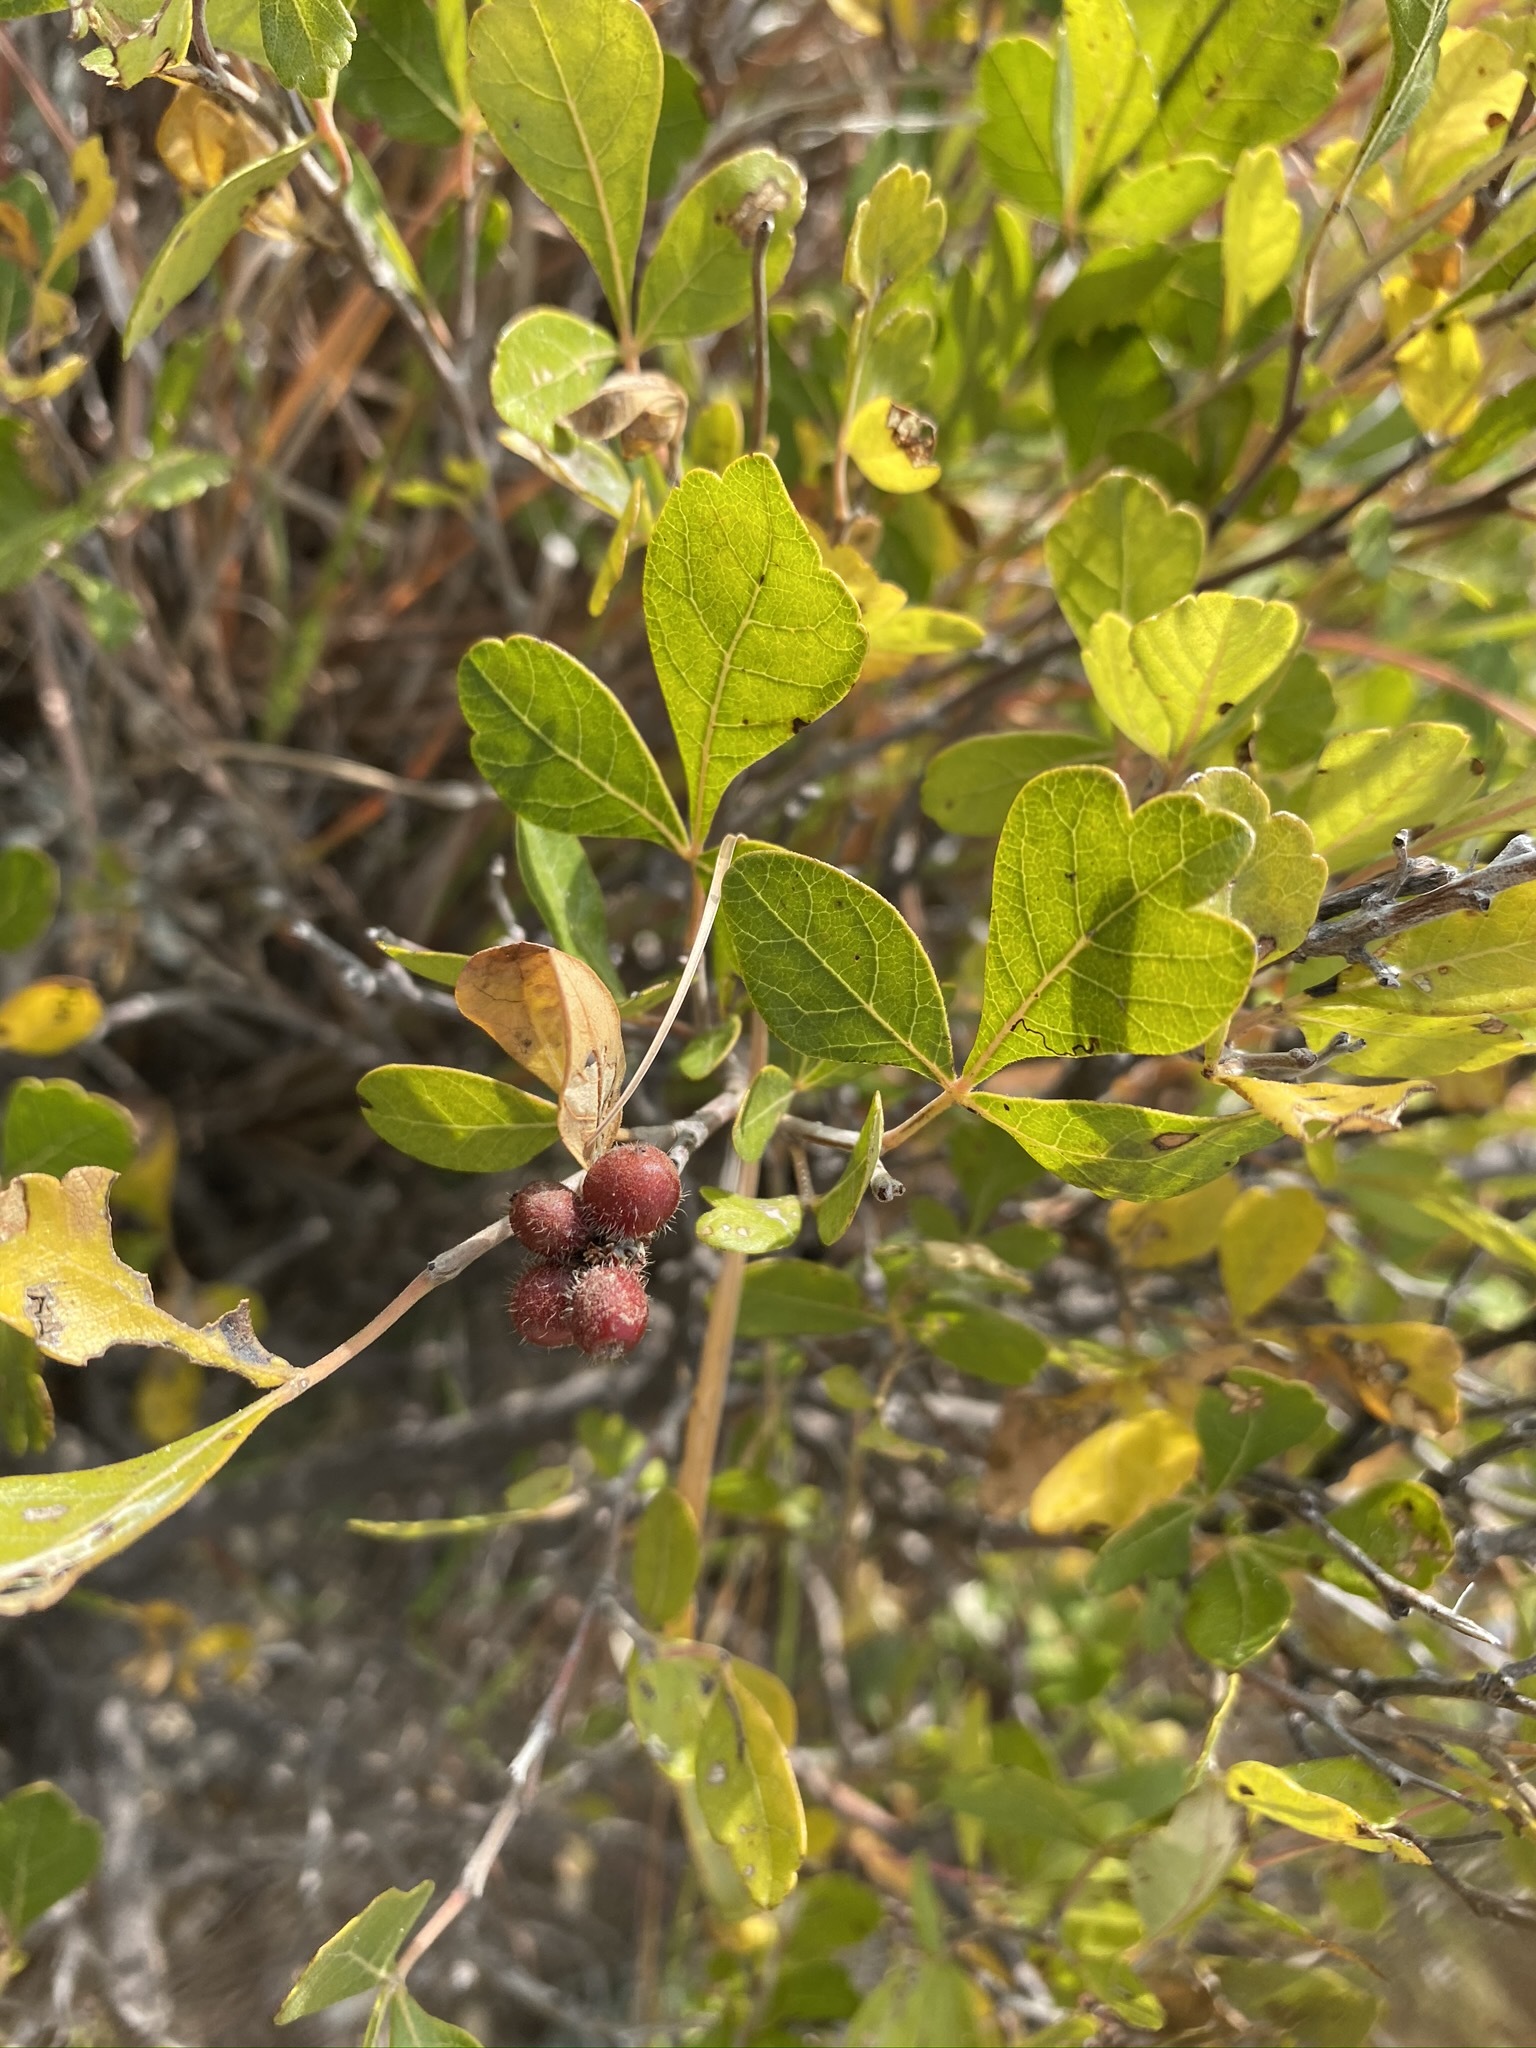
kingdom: Plantae
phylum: Tracheophyta
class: Magnoliopsida
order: Sapindales
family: Anacardiaceae
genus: Rhus
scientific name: Rhus aromatica
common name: Aromatic sumac
